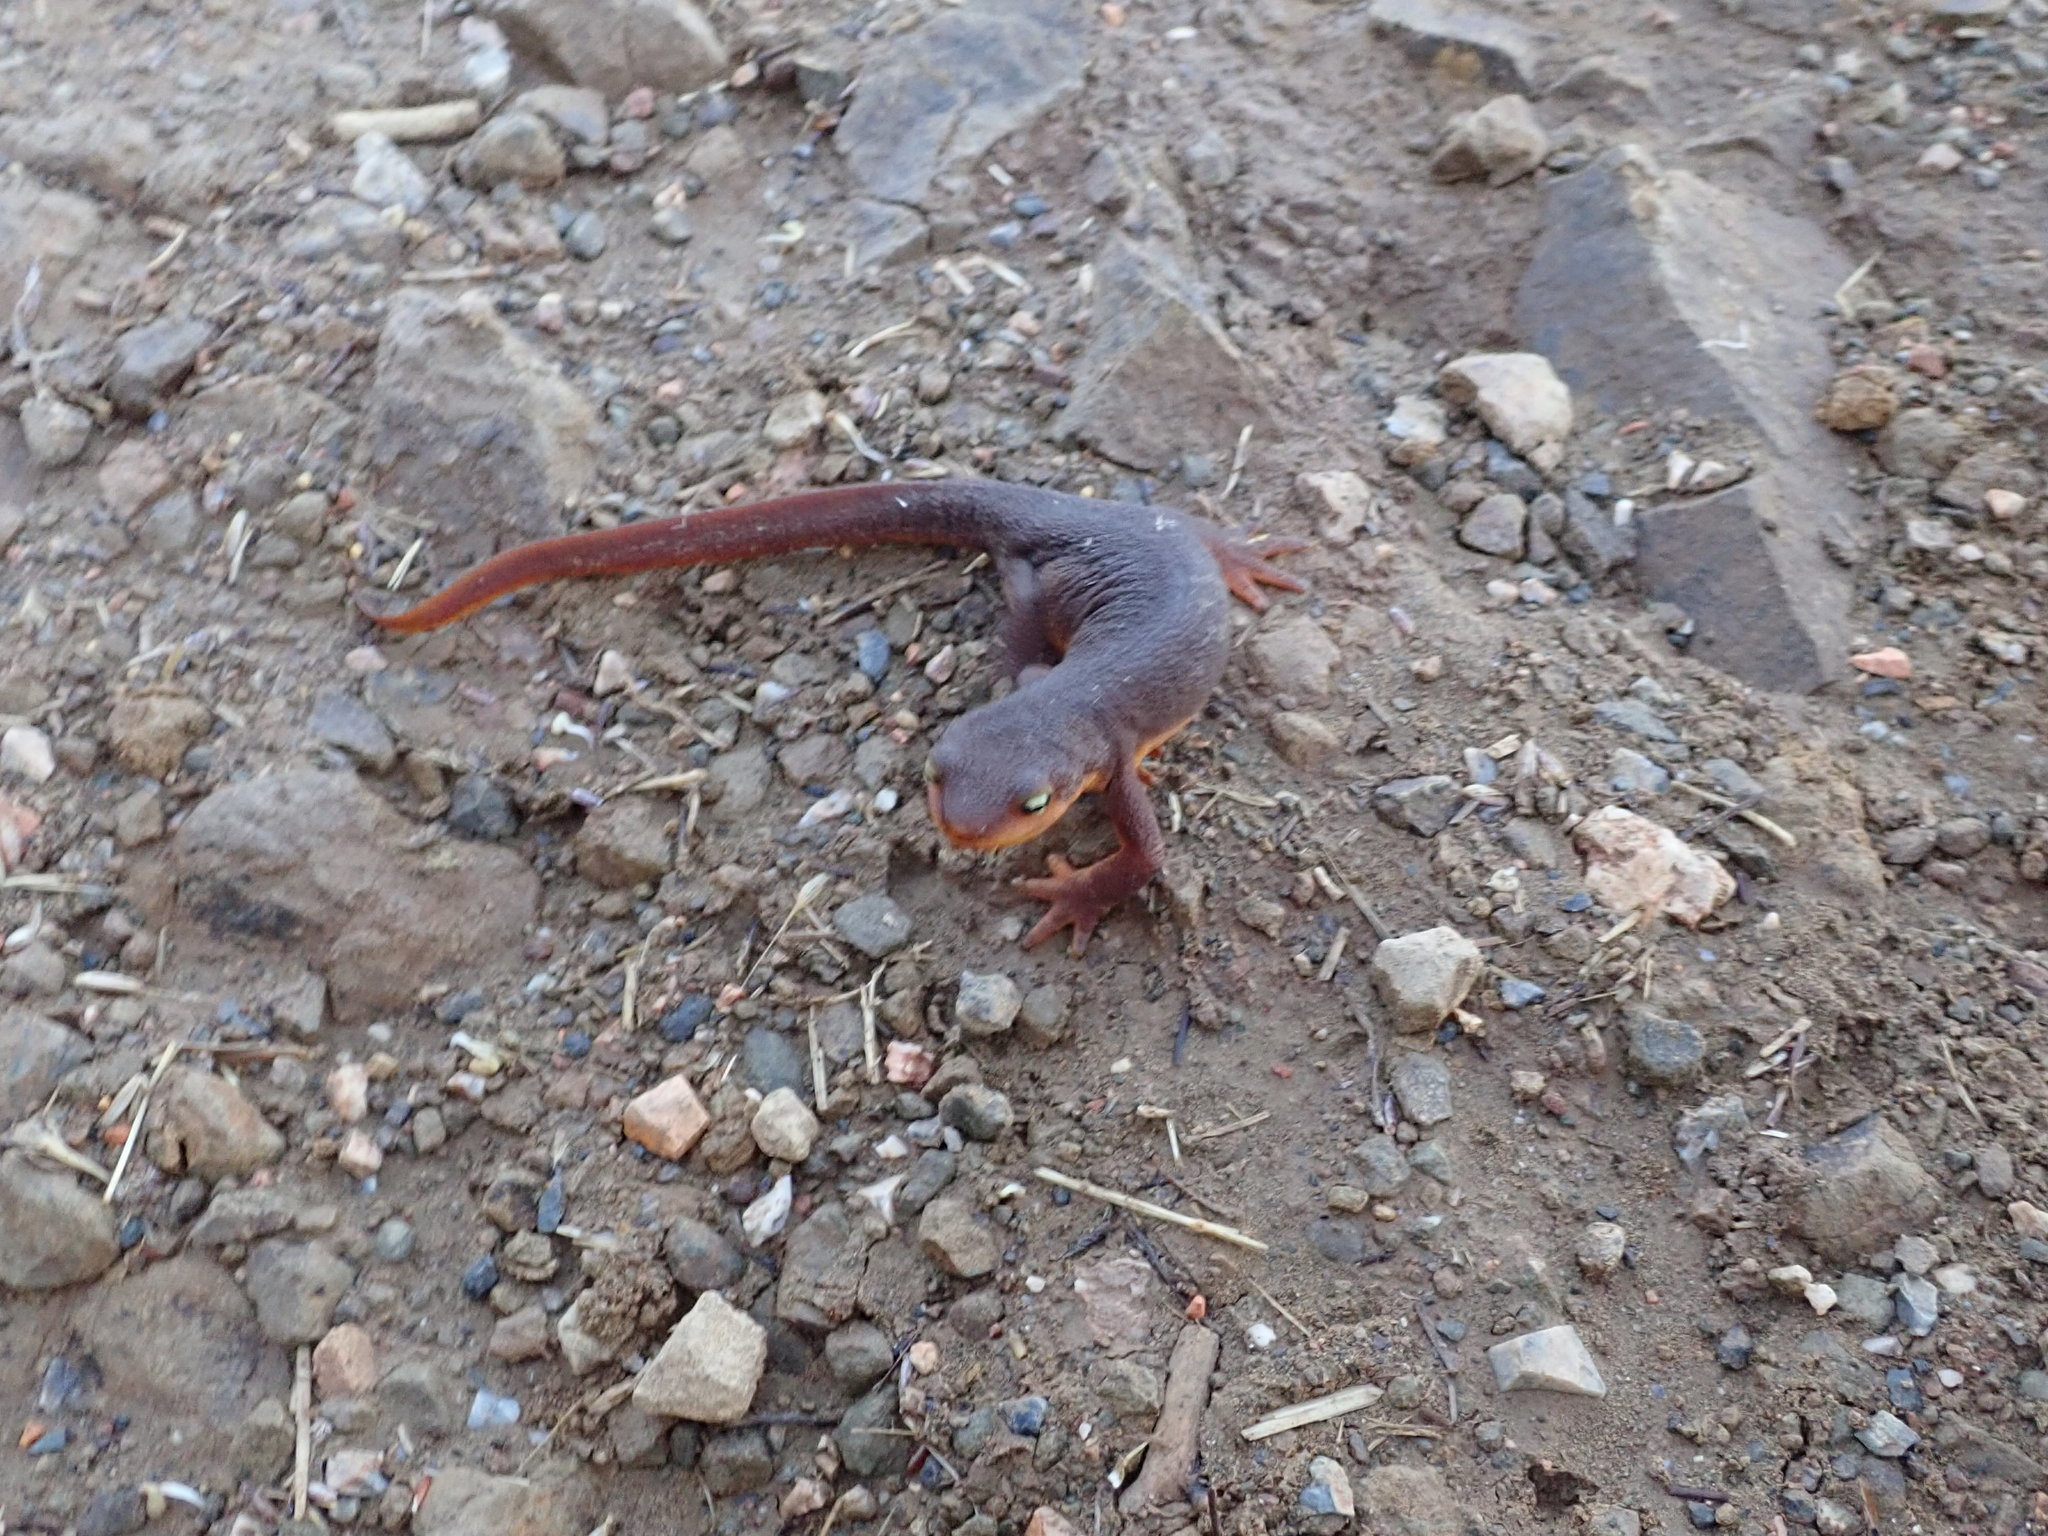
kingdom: Animalia
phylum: Chordata
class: Amphibia
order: Caudata
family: Salamandridae
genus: Taricha
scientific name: Taricha torosa
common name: California newt
